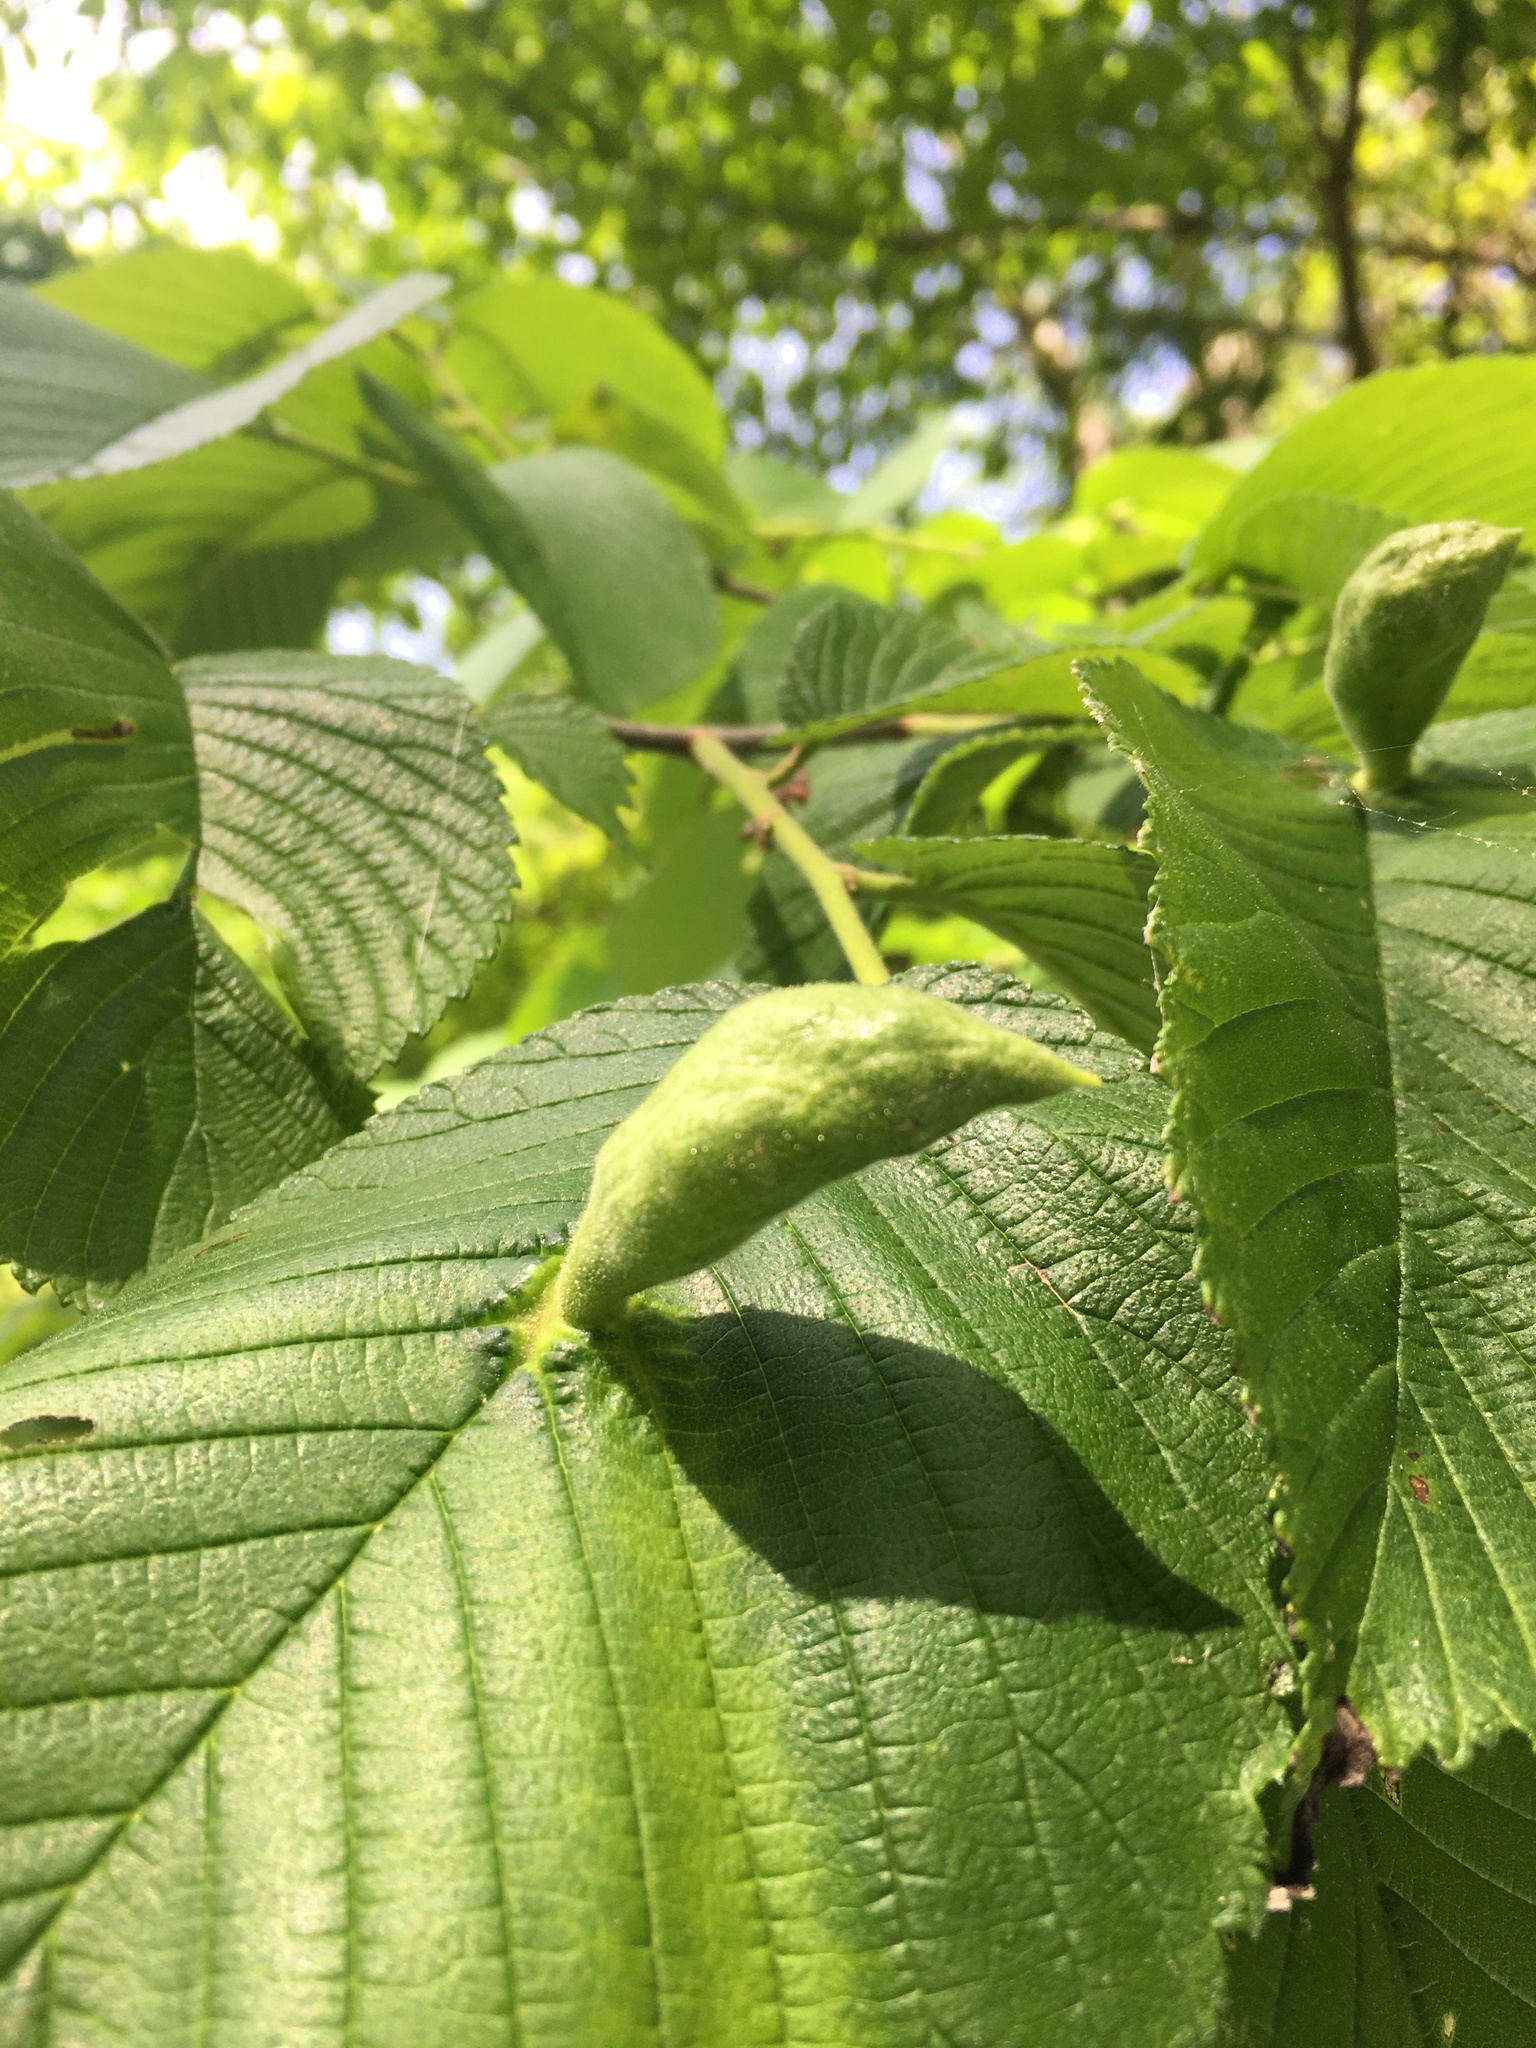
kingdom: Animalia
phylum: Arthropoda
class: Insecta
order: Hemiptera
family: Aphididae
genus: Kaltenbachiella
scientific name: Kaltenbachiella ulmifusa
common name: Elm pouchgall aphid
